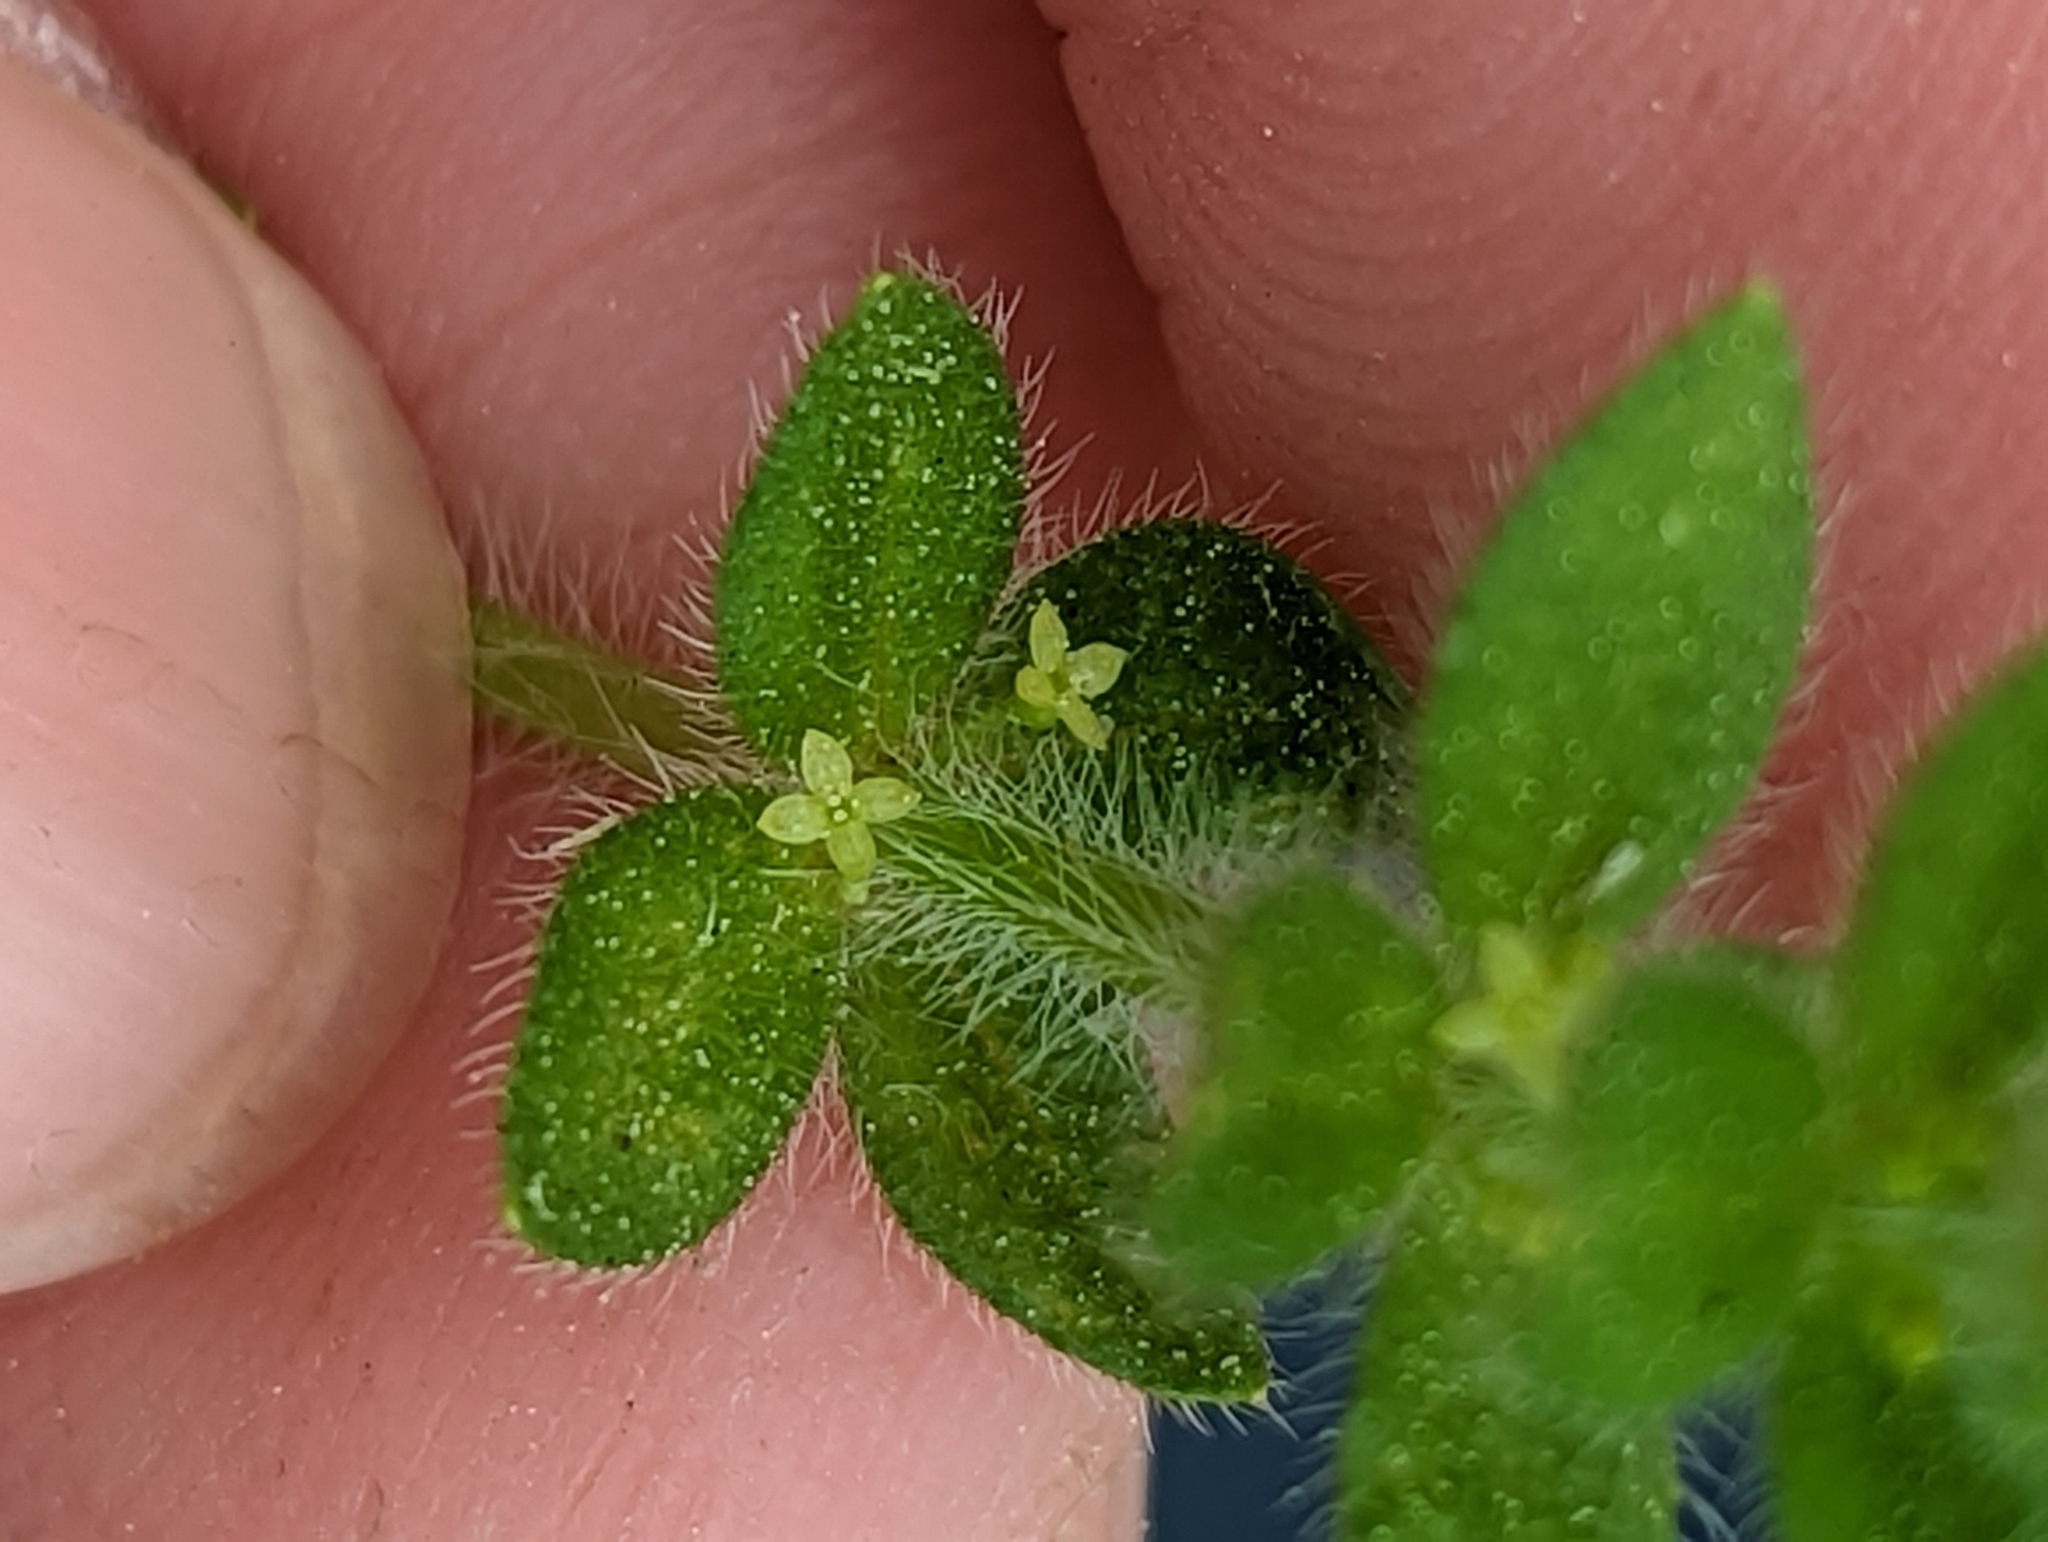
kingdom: Plantae
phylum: Tracheophyta
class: Magnoliopsida
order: Gentianales
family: Rubiaceae
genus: Cruciata
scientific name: Cruciata pedemontana
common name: Piedmont bedstraw
